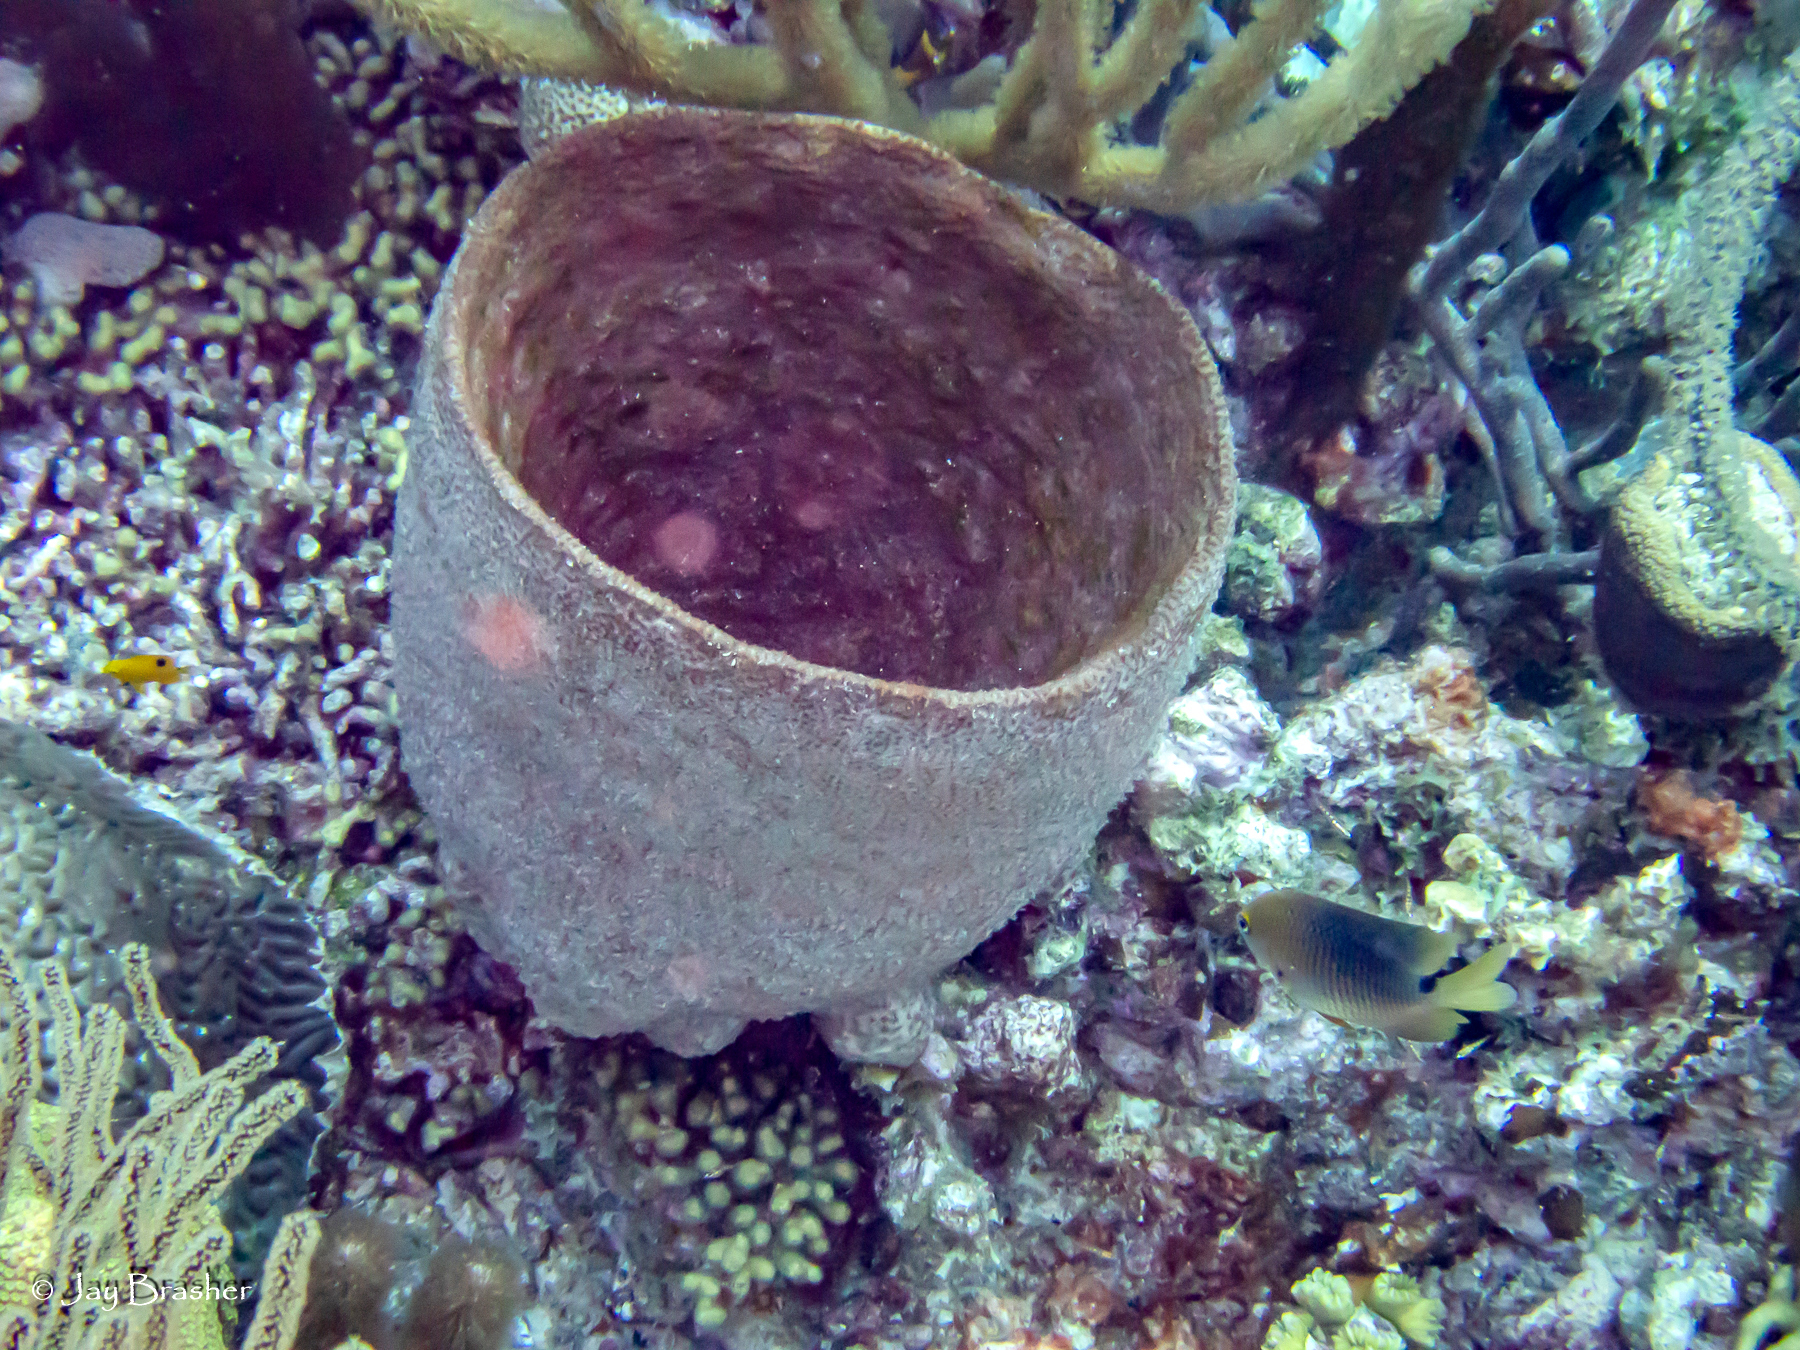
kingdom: Animalia
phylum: Porifera
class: Demospongiae
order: Dictyoceratida
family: Irciniidae
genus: Ircinia
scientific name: Ircinia campana
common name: Vase sponge
